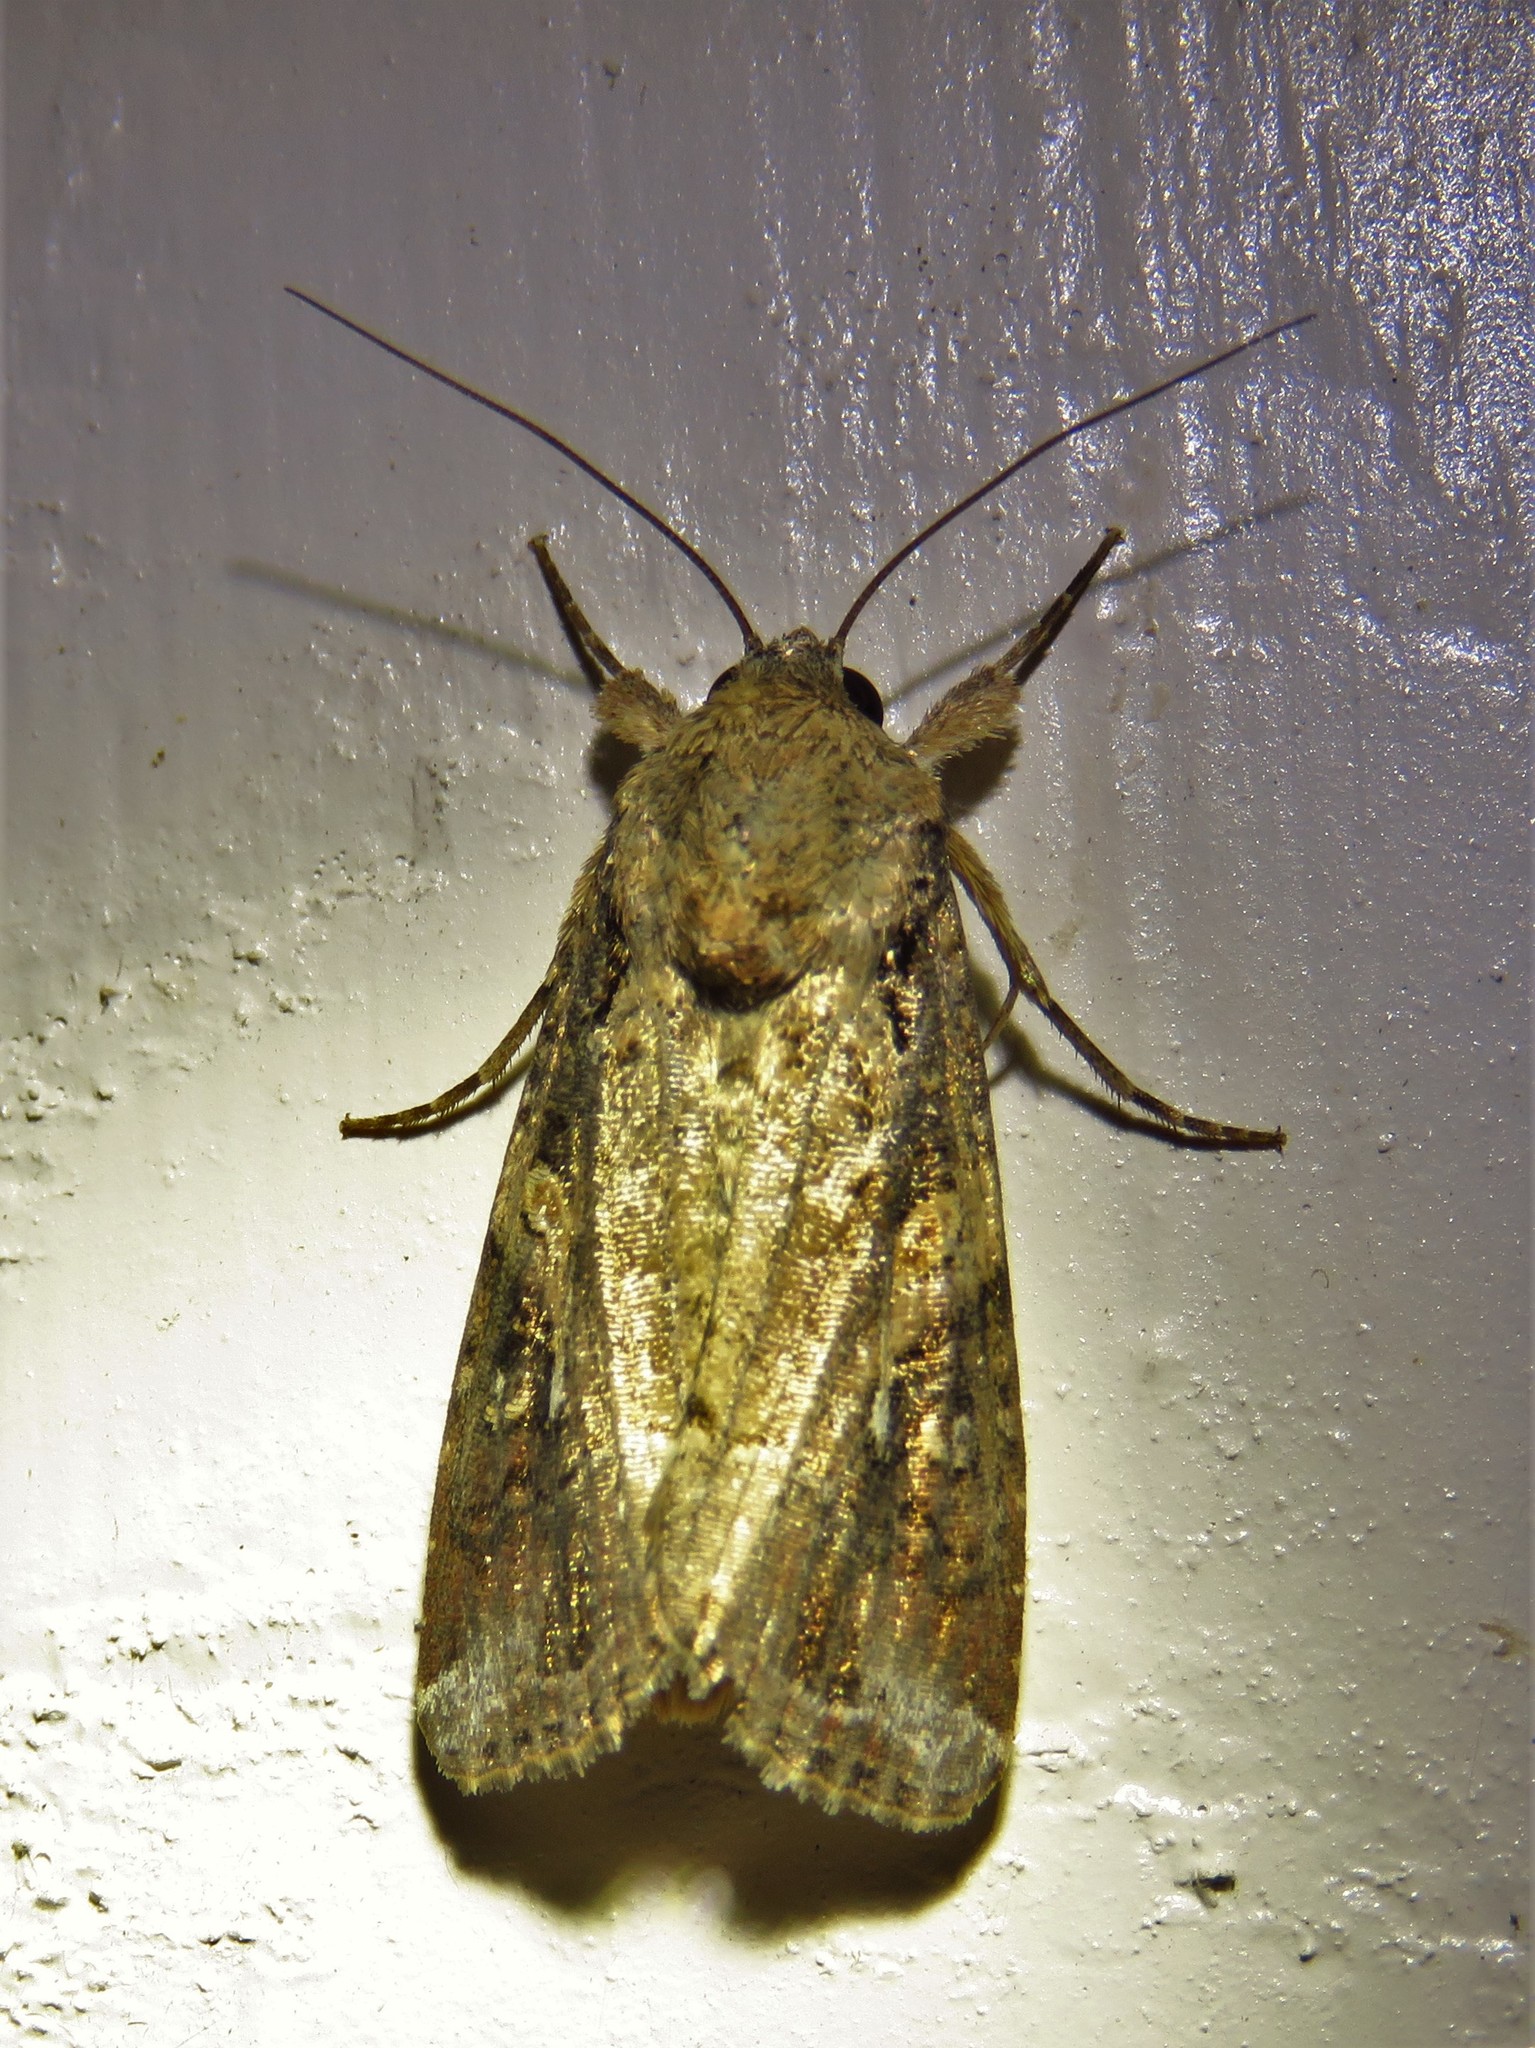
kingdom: Animalia
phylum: Arthropoda
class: Insecta
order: Lepidoptera
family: Noctuidae
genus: Spodoptera
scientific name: Spodoptera frugiperda
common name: Fall armyworm
